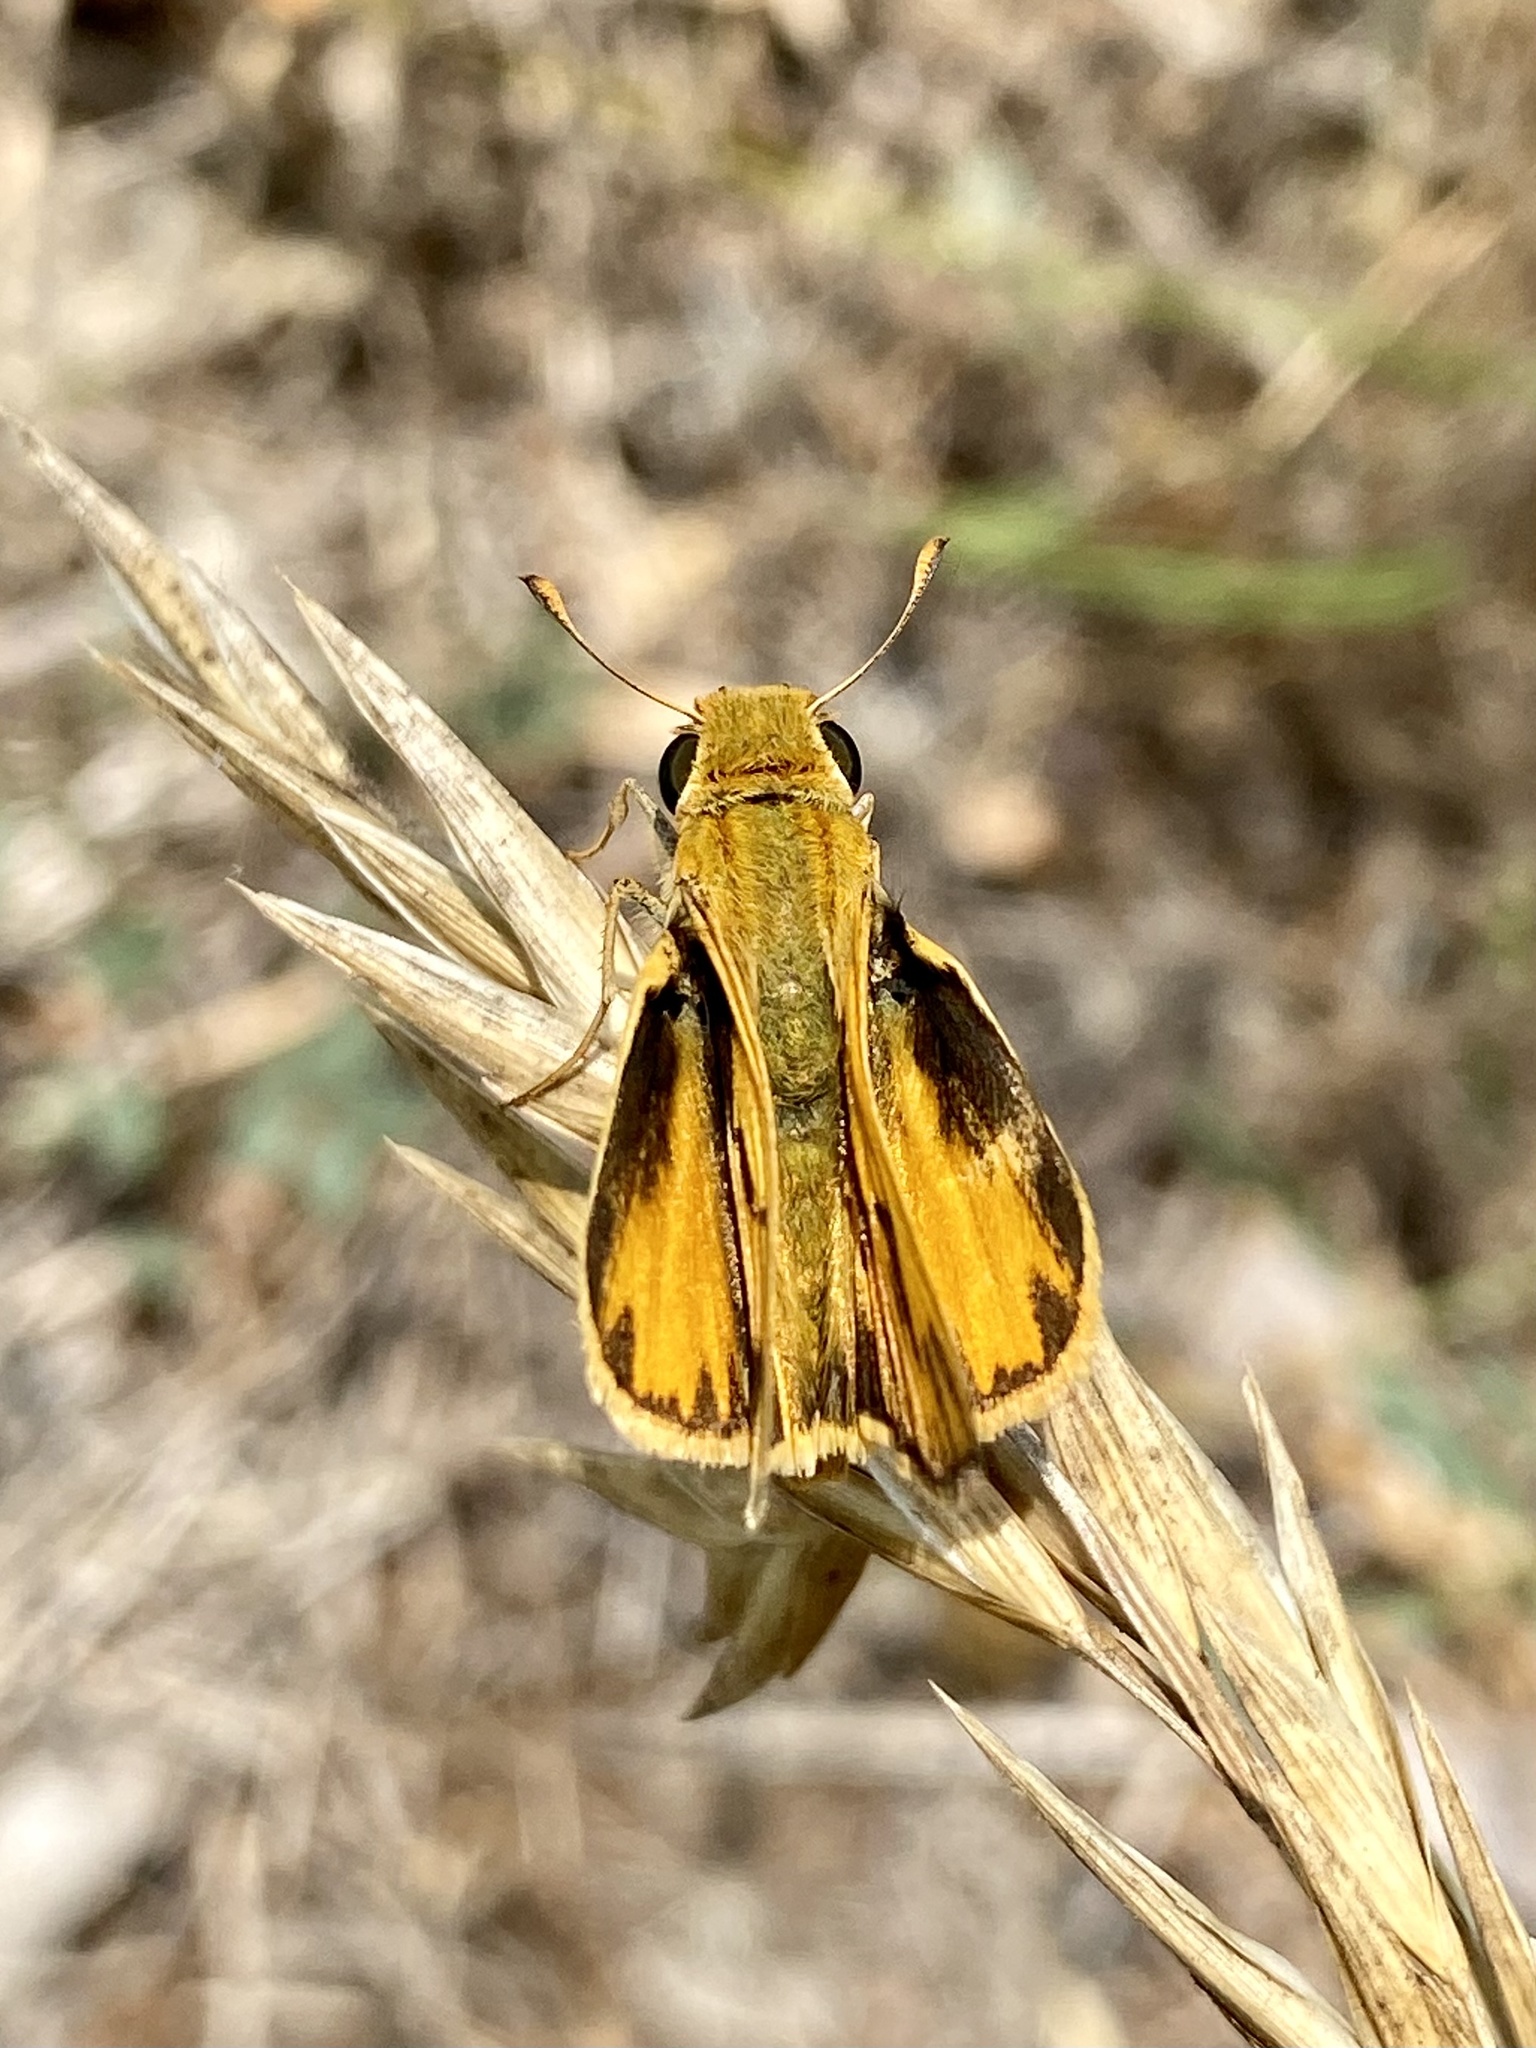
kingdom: Animalia
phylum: Arthropoda
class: Insecta
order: Lepidoptera
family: Hesperiidae
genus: Hylephila
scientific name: Hylephila phyleus
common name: Fiery skipper
